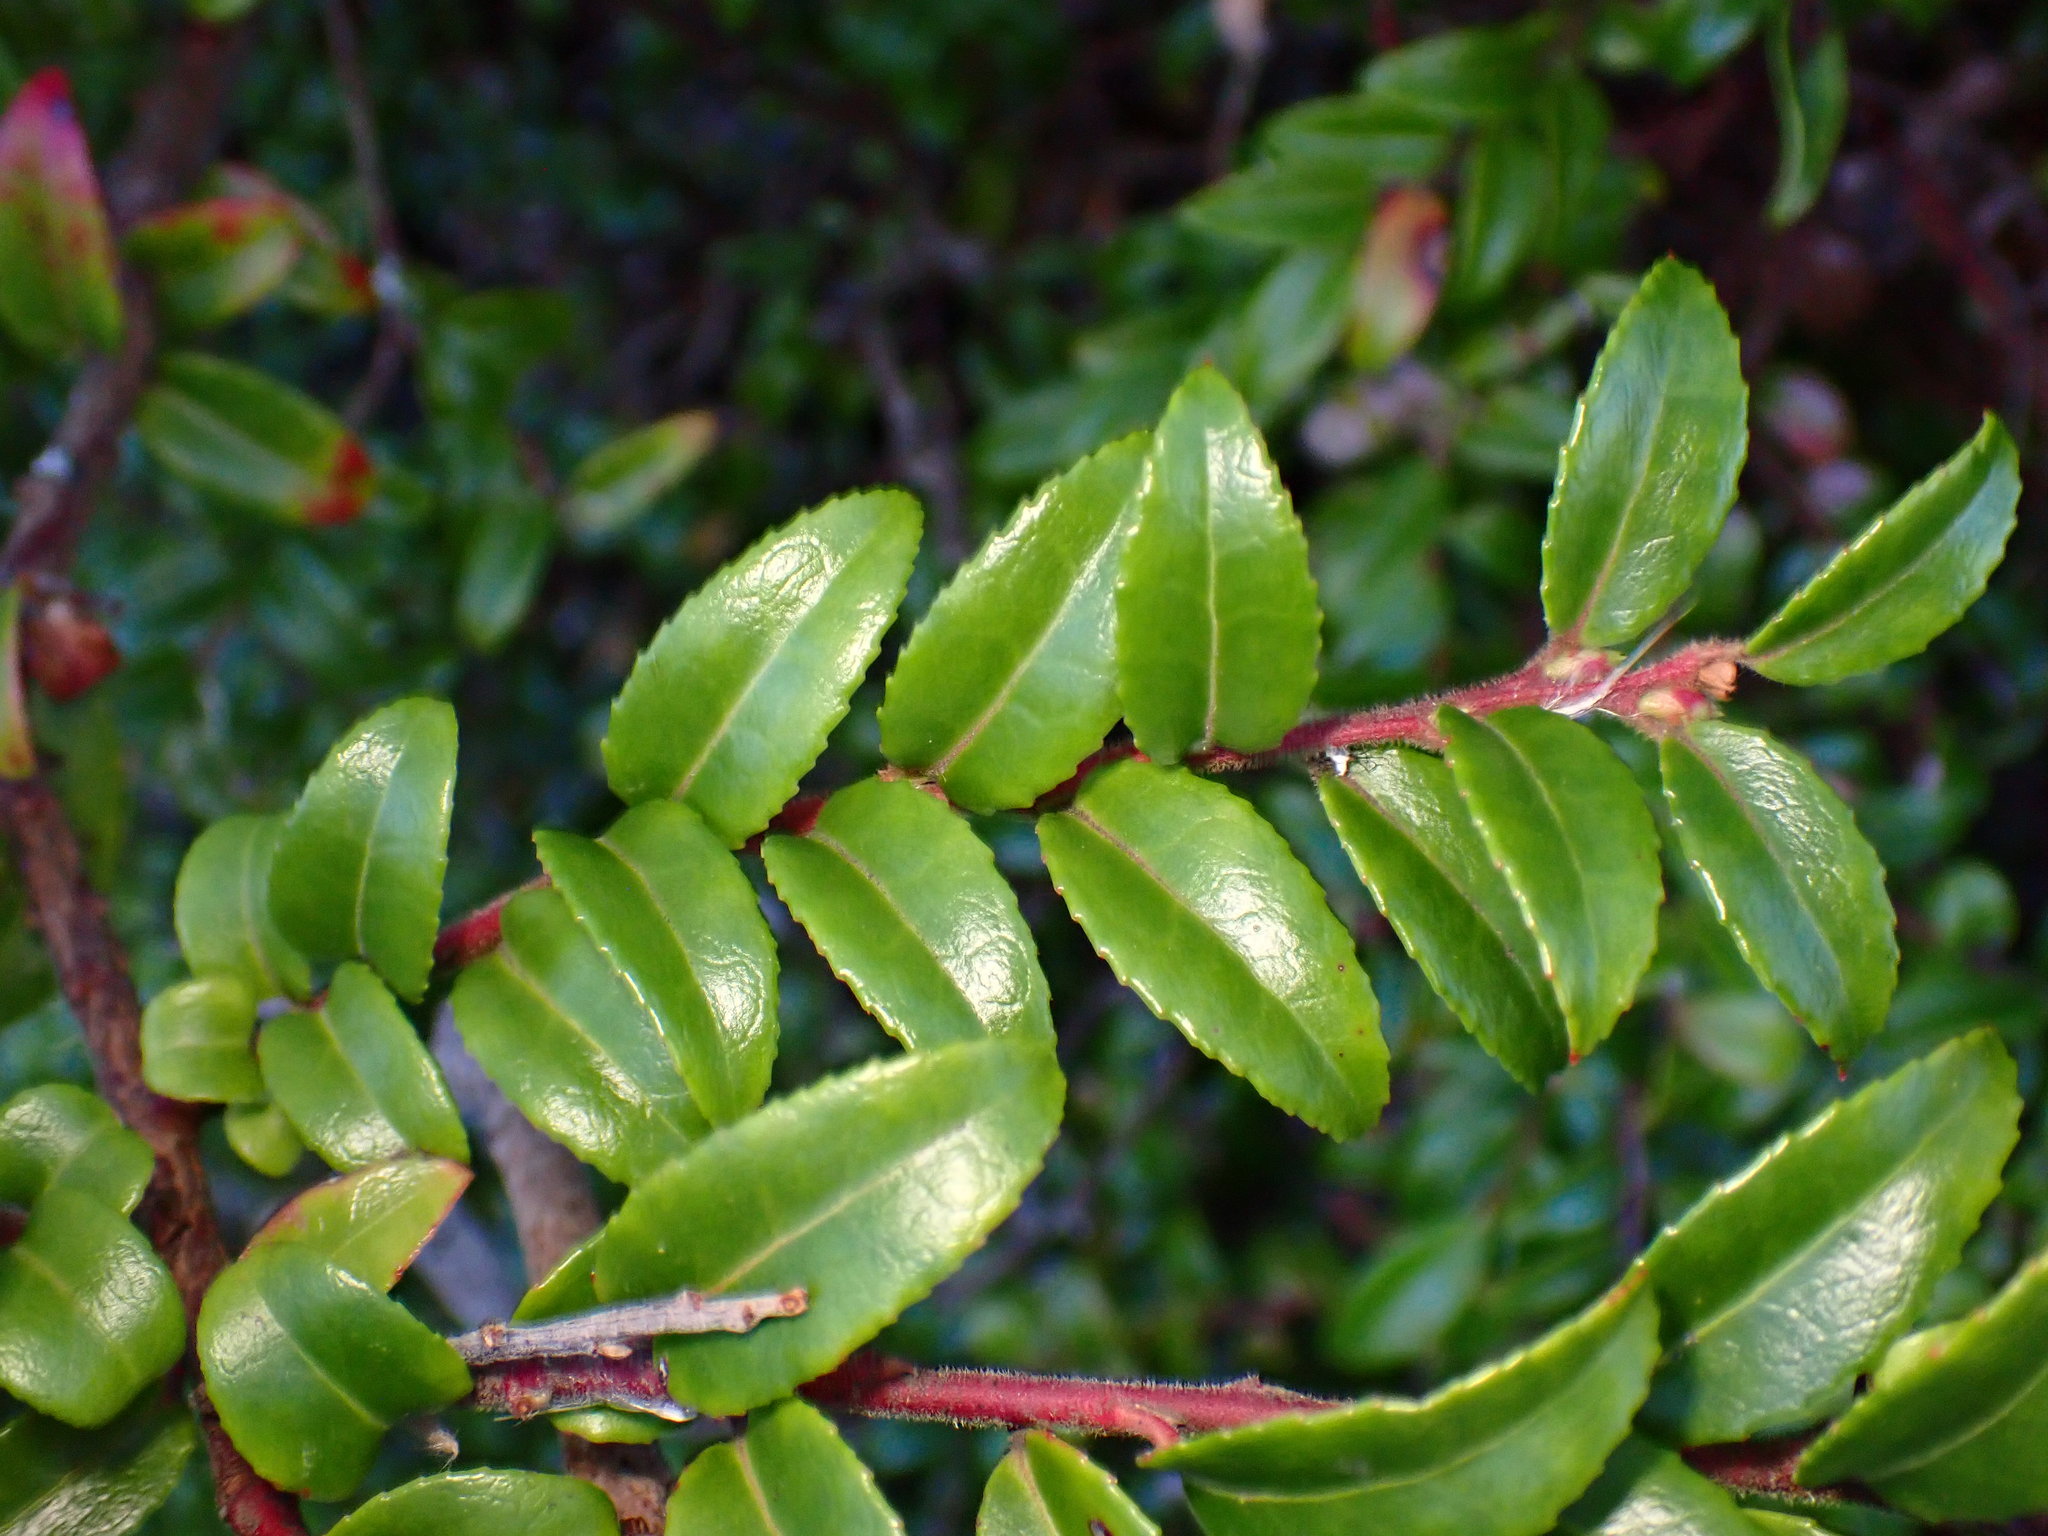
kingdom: Plantae
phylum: Tracheophyta
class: Magnoliopsida
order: Ericales
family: Ericaceae
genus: Vaccinium
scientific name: Vaccinium ovatum
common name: California-huckleberry
